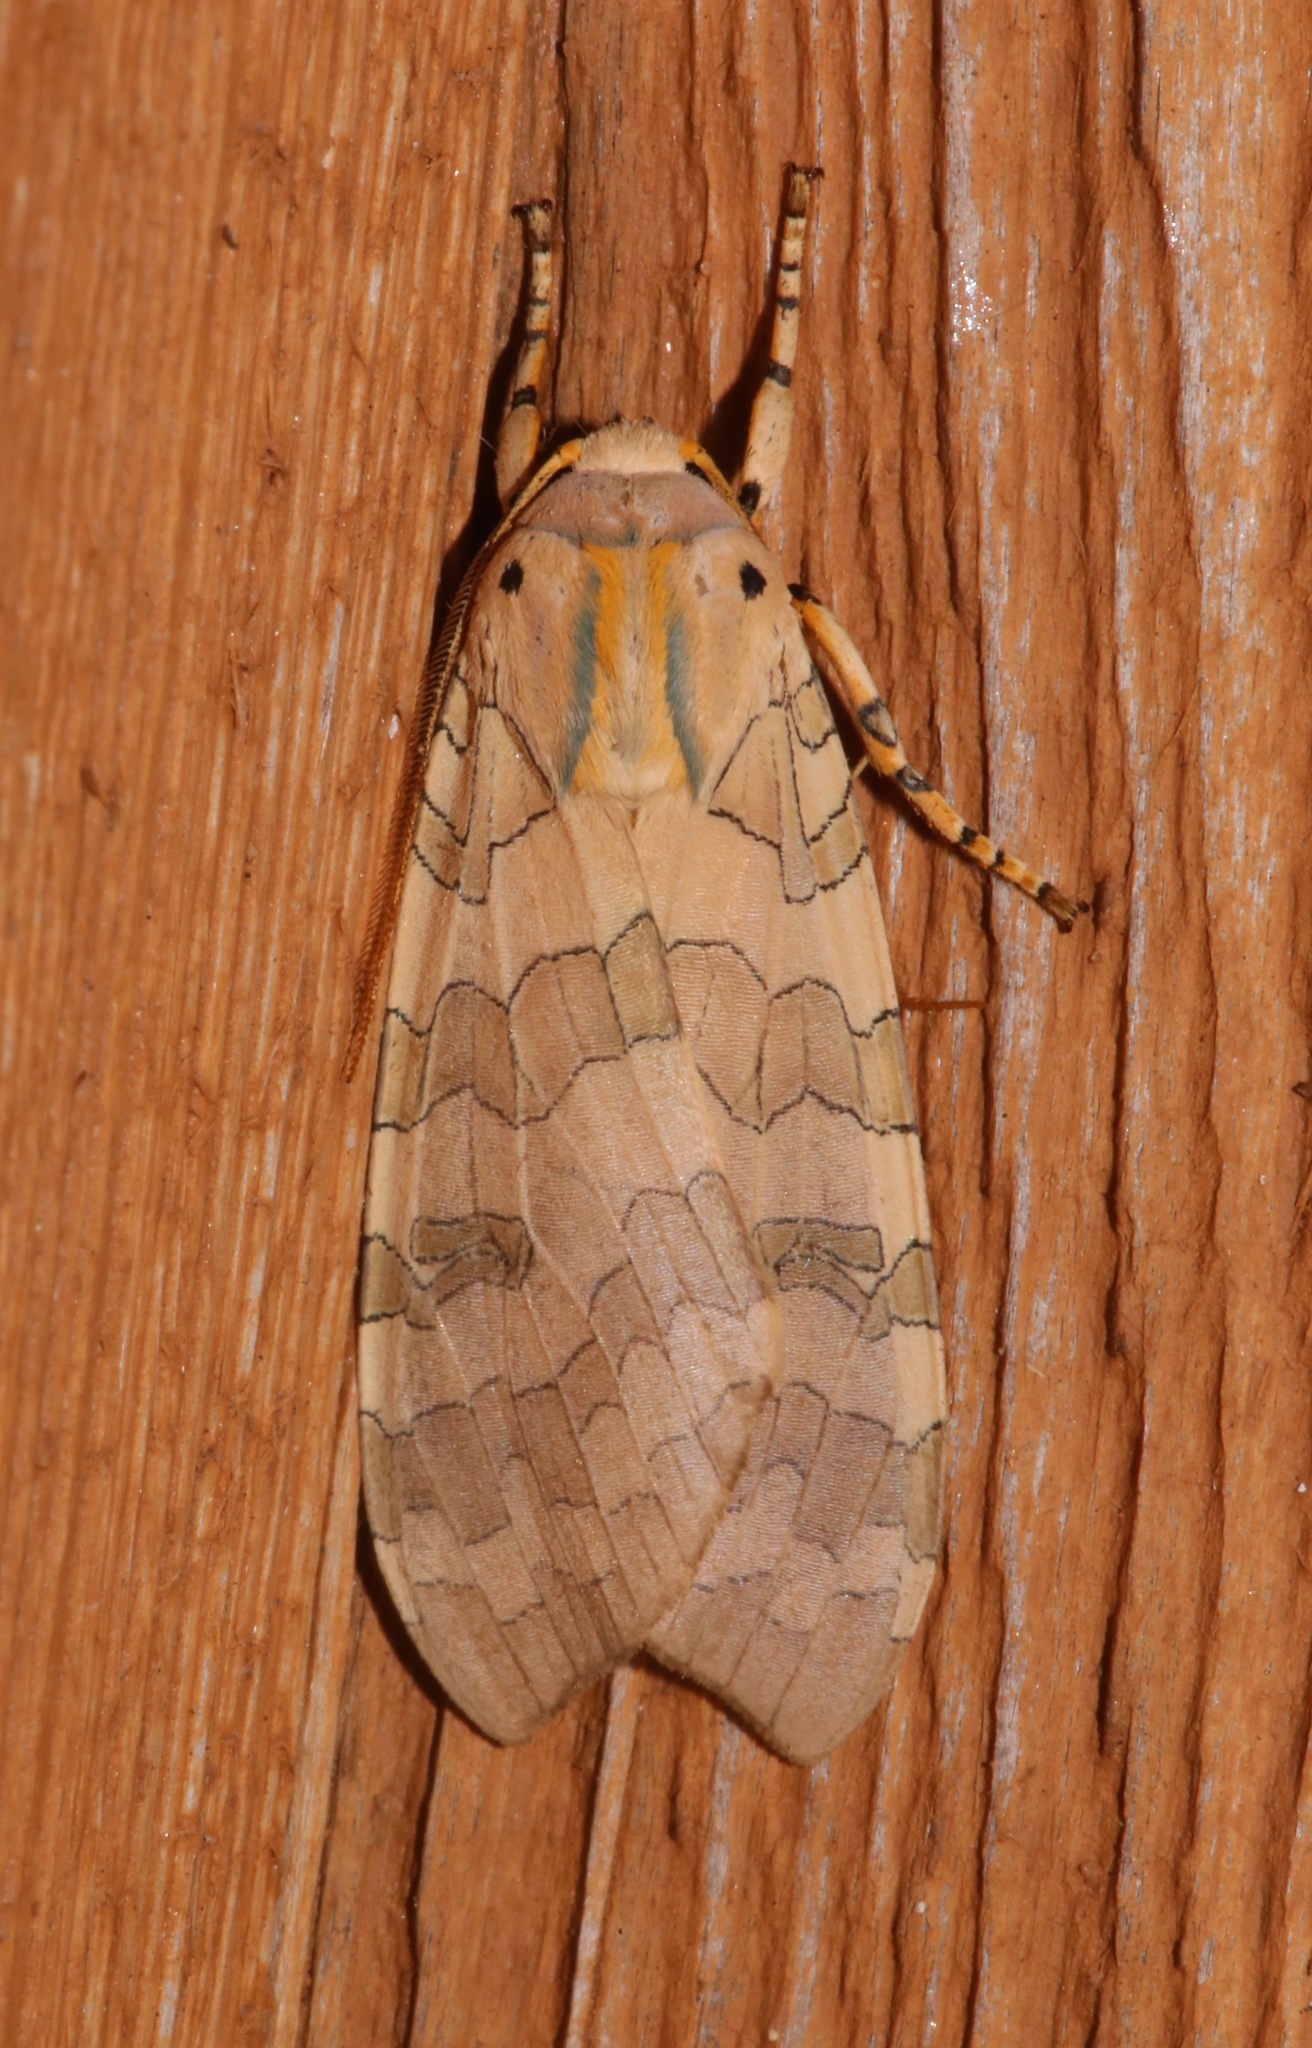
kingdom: Animalia
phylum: Arthropoda
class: Insecta
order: Lepidoptera
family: Erebidae
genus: Halysidota
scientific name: Halysidota tessellaris
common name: Banded tussock moth
